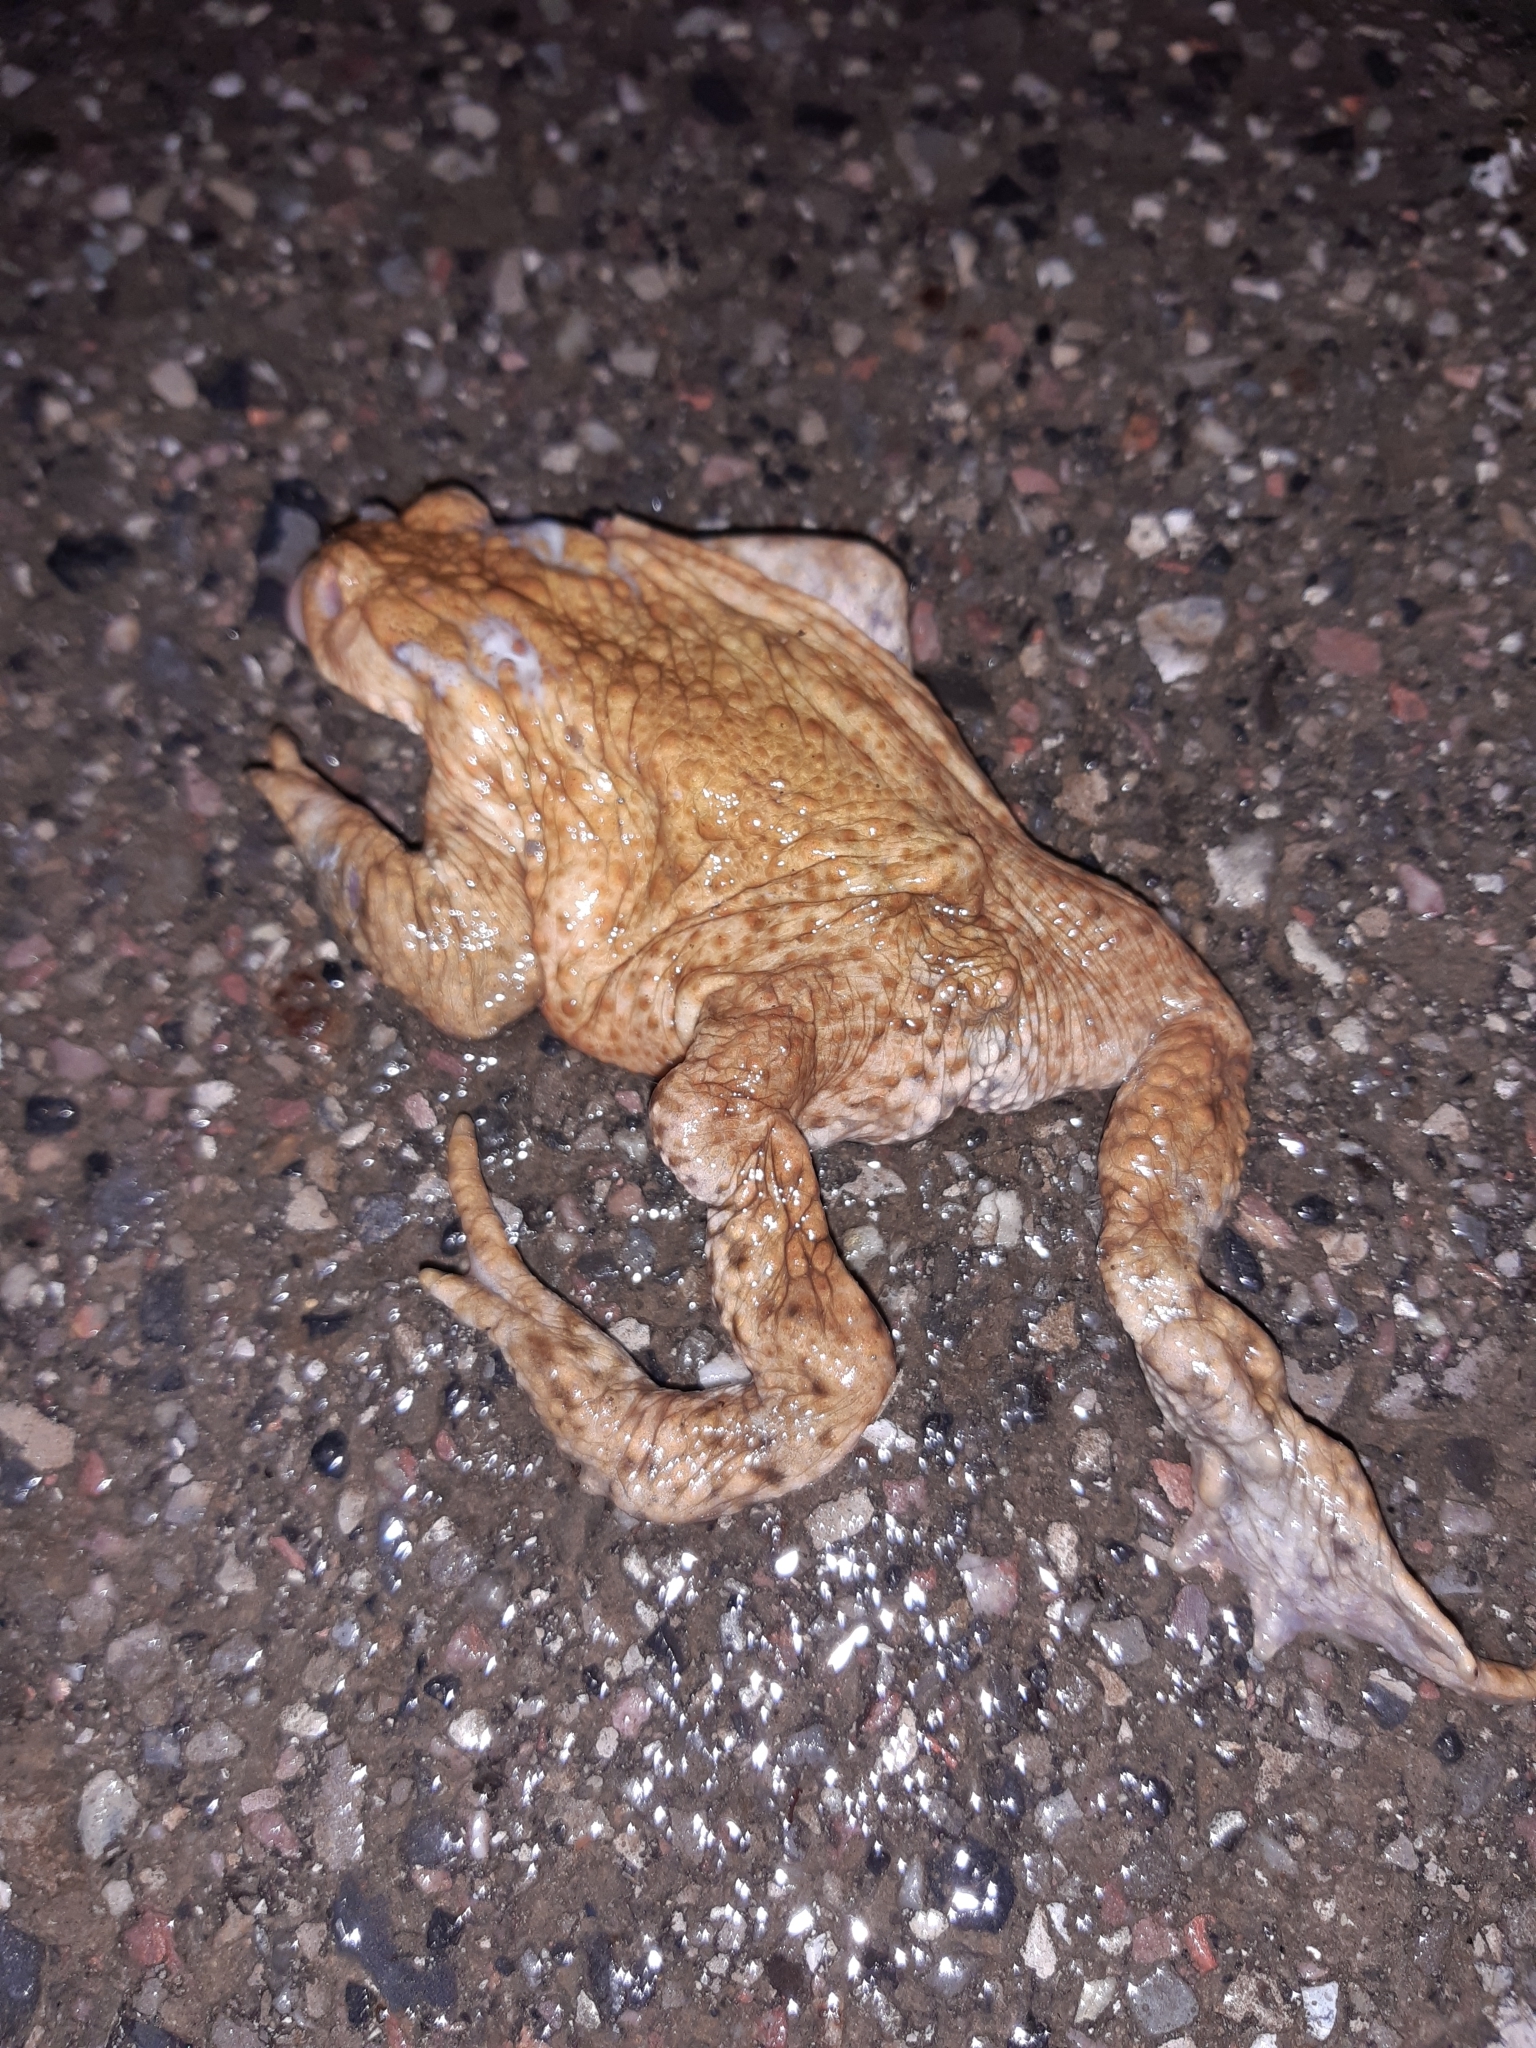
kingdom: Animalia
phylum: Chordata
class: Amphibia
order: Anura
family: Bufonidae
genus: Bufo
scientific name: Bufo bufo
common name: Common toad
